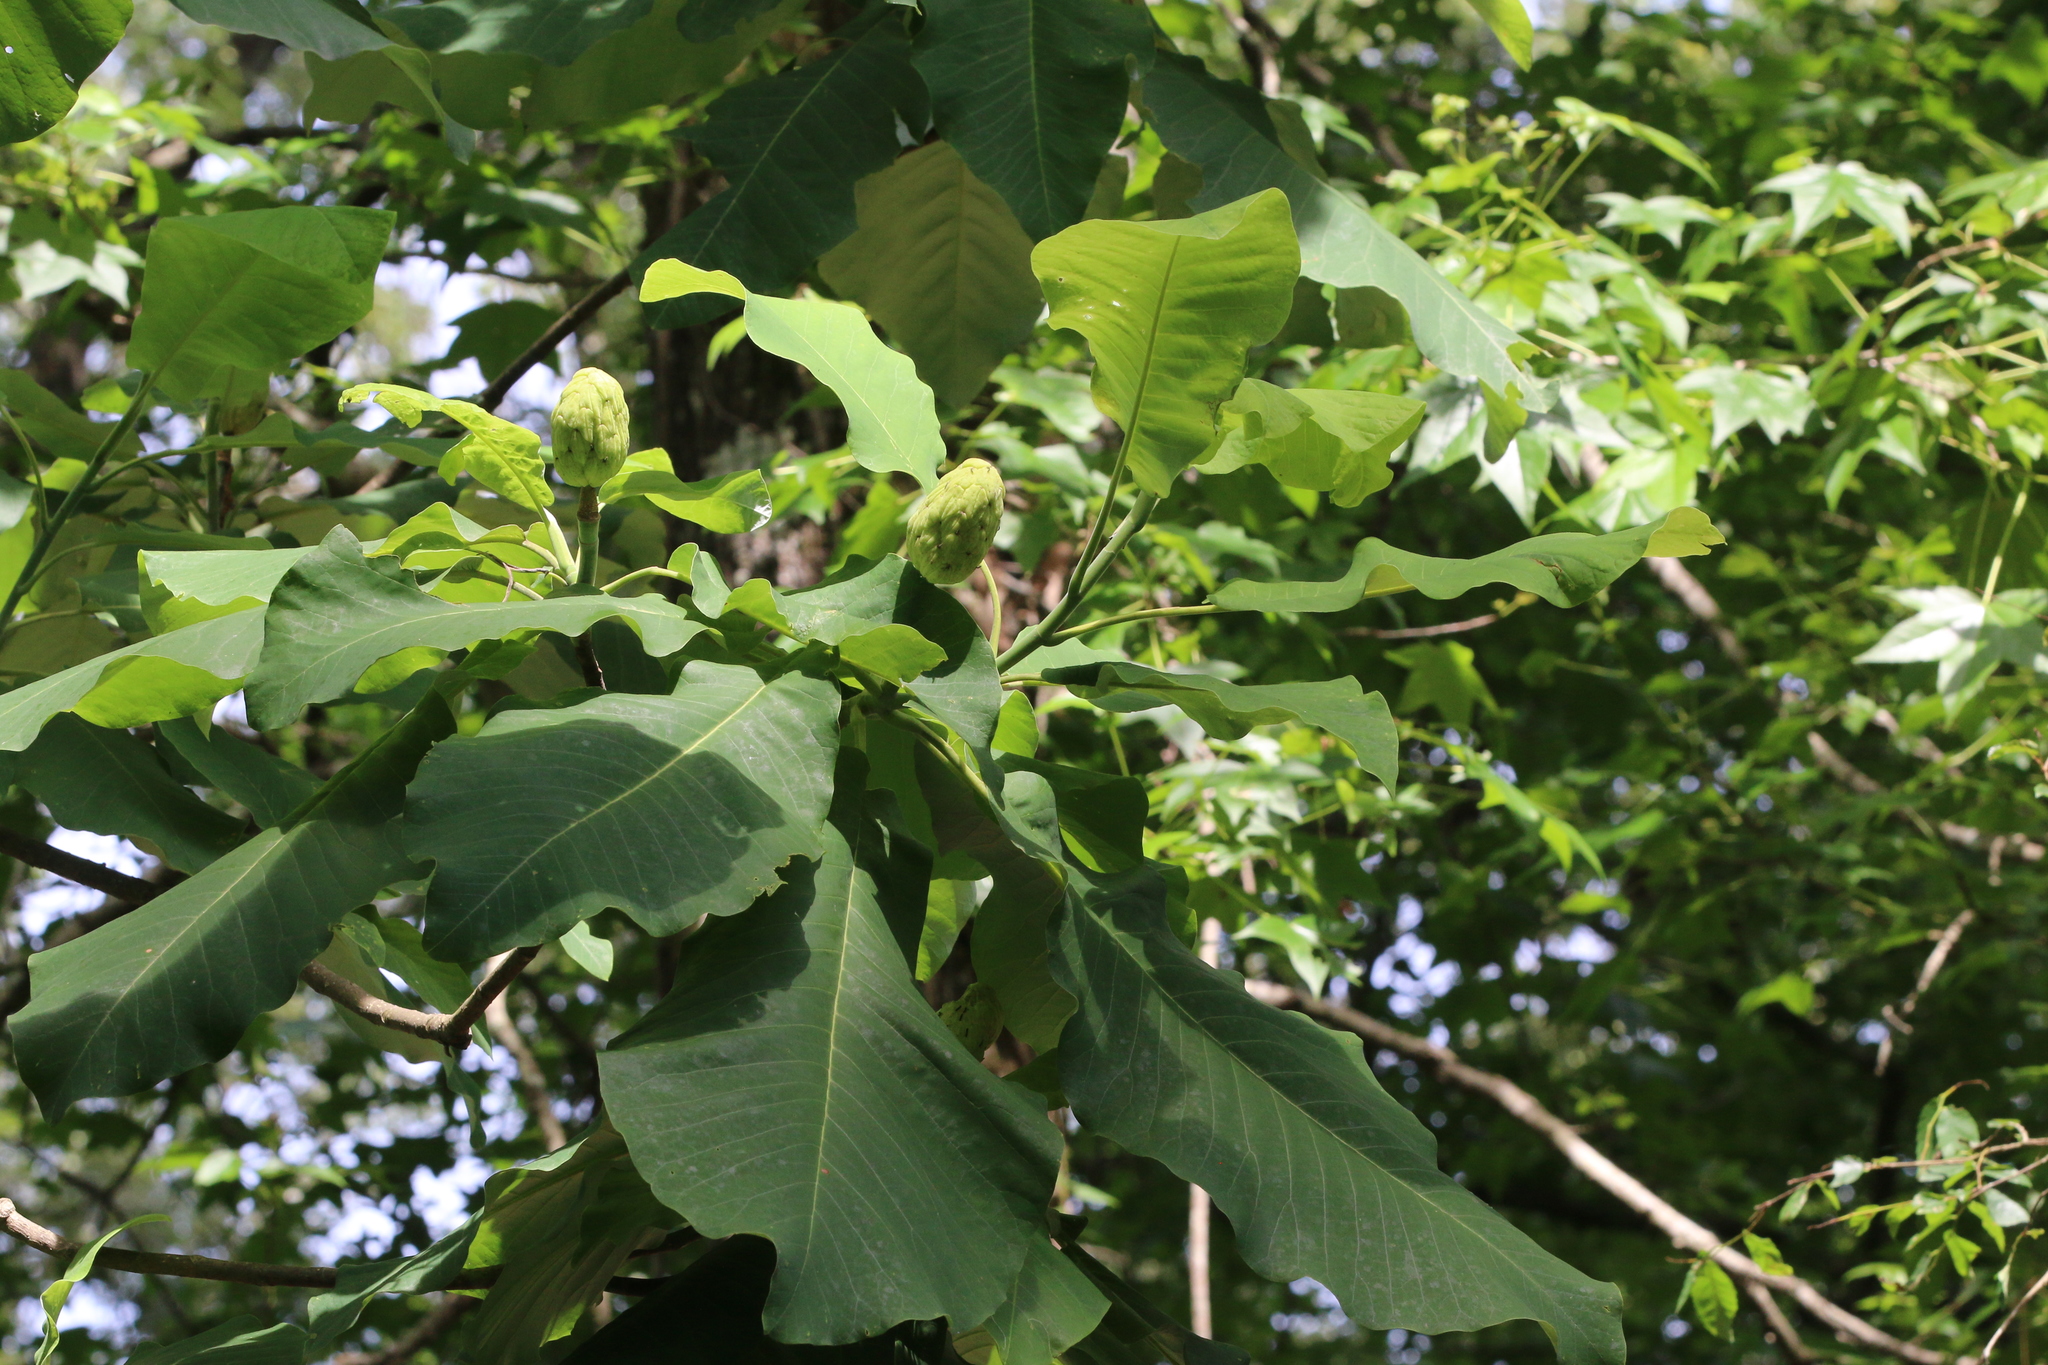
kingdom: Plantae
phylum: Tracheophyta
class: Magnoliopsida
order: Magnoliales
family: Magnoliaceae
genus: Magnolia
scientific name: Magnolia macrophylla
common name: Big-leaf magnolia
